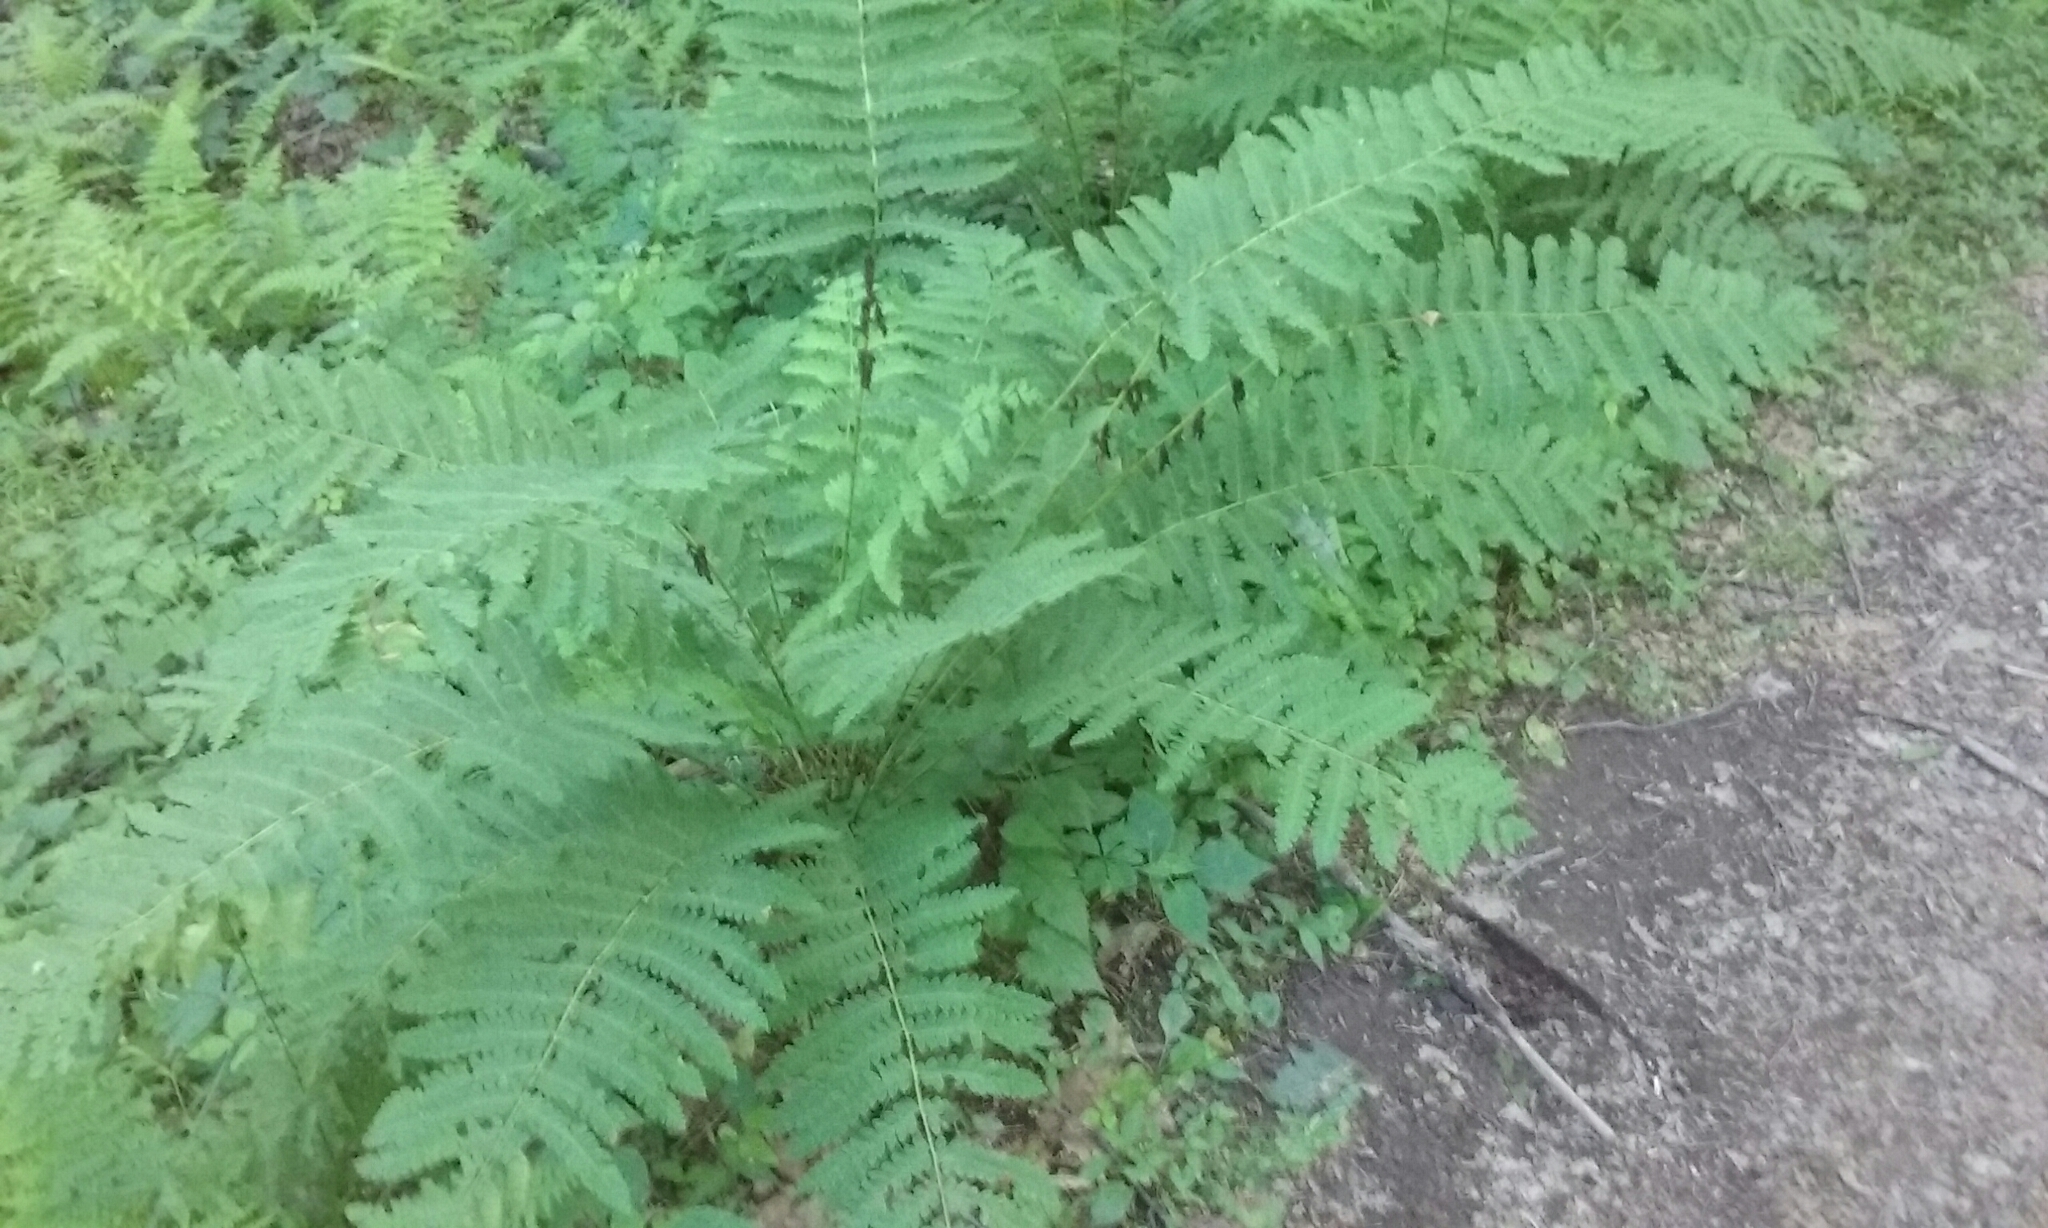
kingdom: Plantae
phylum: Tracheophyta
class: Polypodiopsida
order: Osmundales
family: Osmundaceae
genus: Claytosmunda
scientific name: Claytosmunda claytoniana
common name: Clayton's fern
